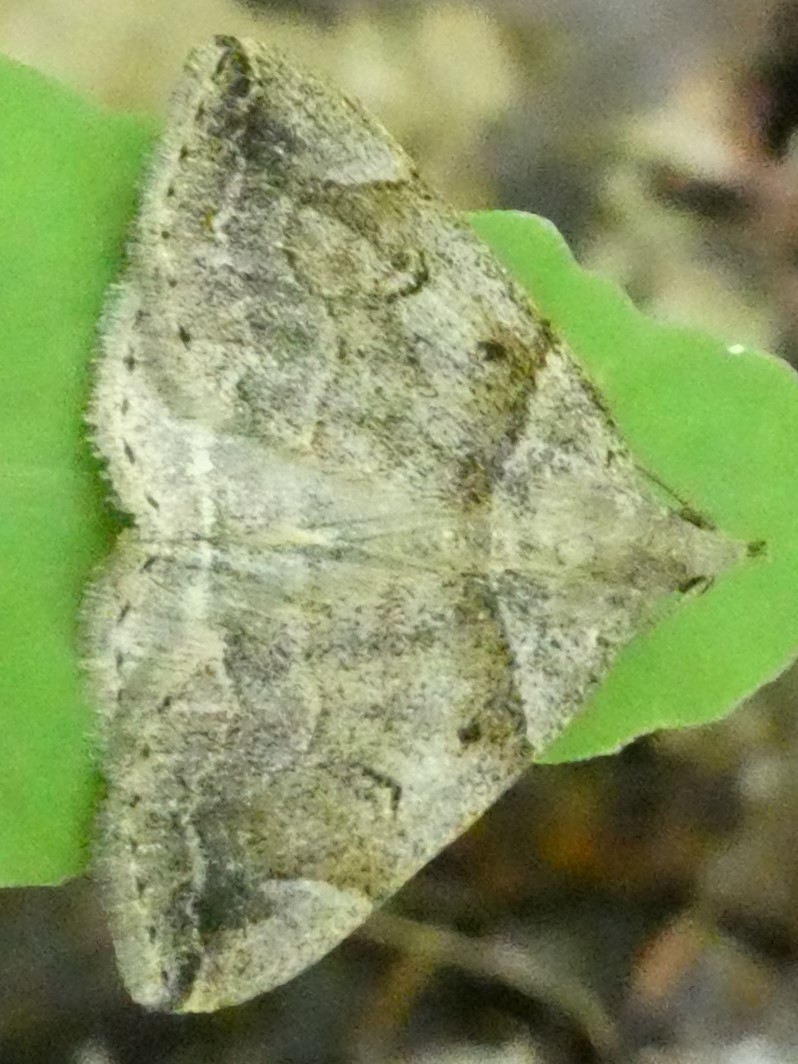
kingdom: Animalia
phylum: Arthropoda
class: Insecta
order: Lepidoptera
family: Erebidae
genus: Zanclognatha
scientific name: Zanclognatha laevigata
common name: Variable fan-foot
